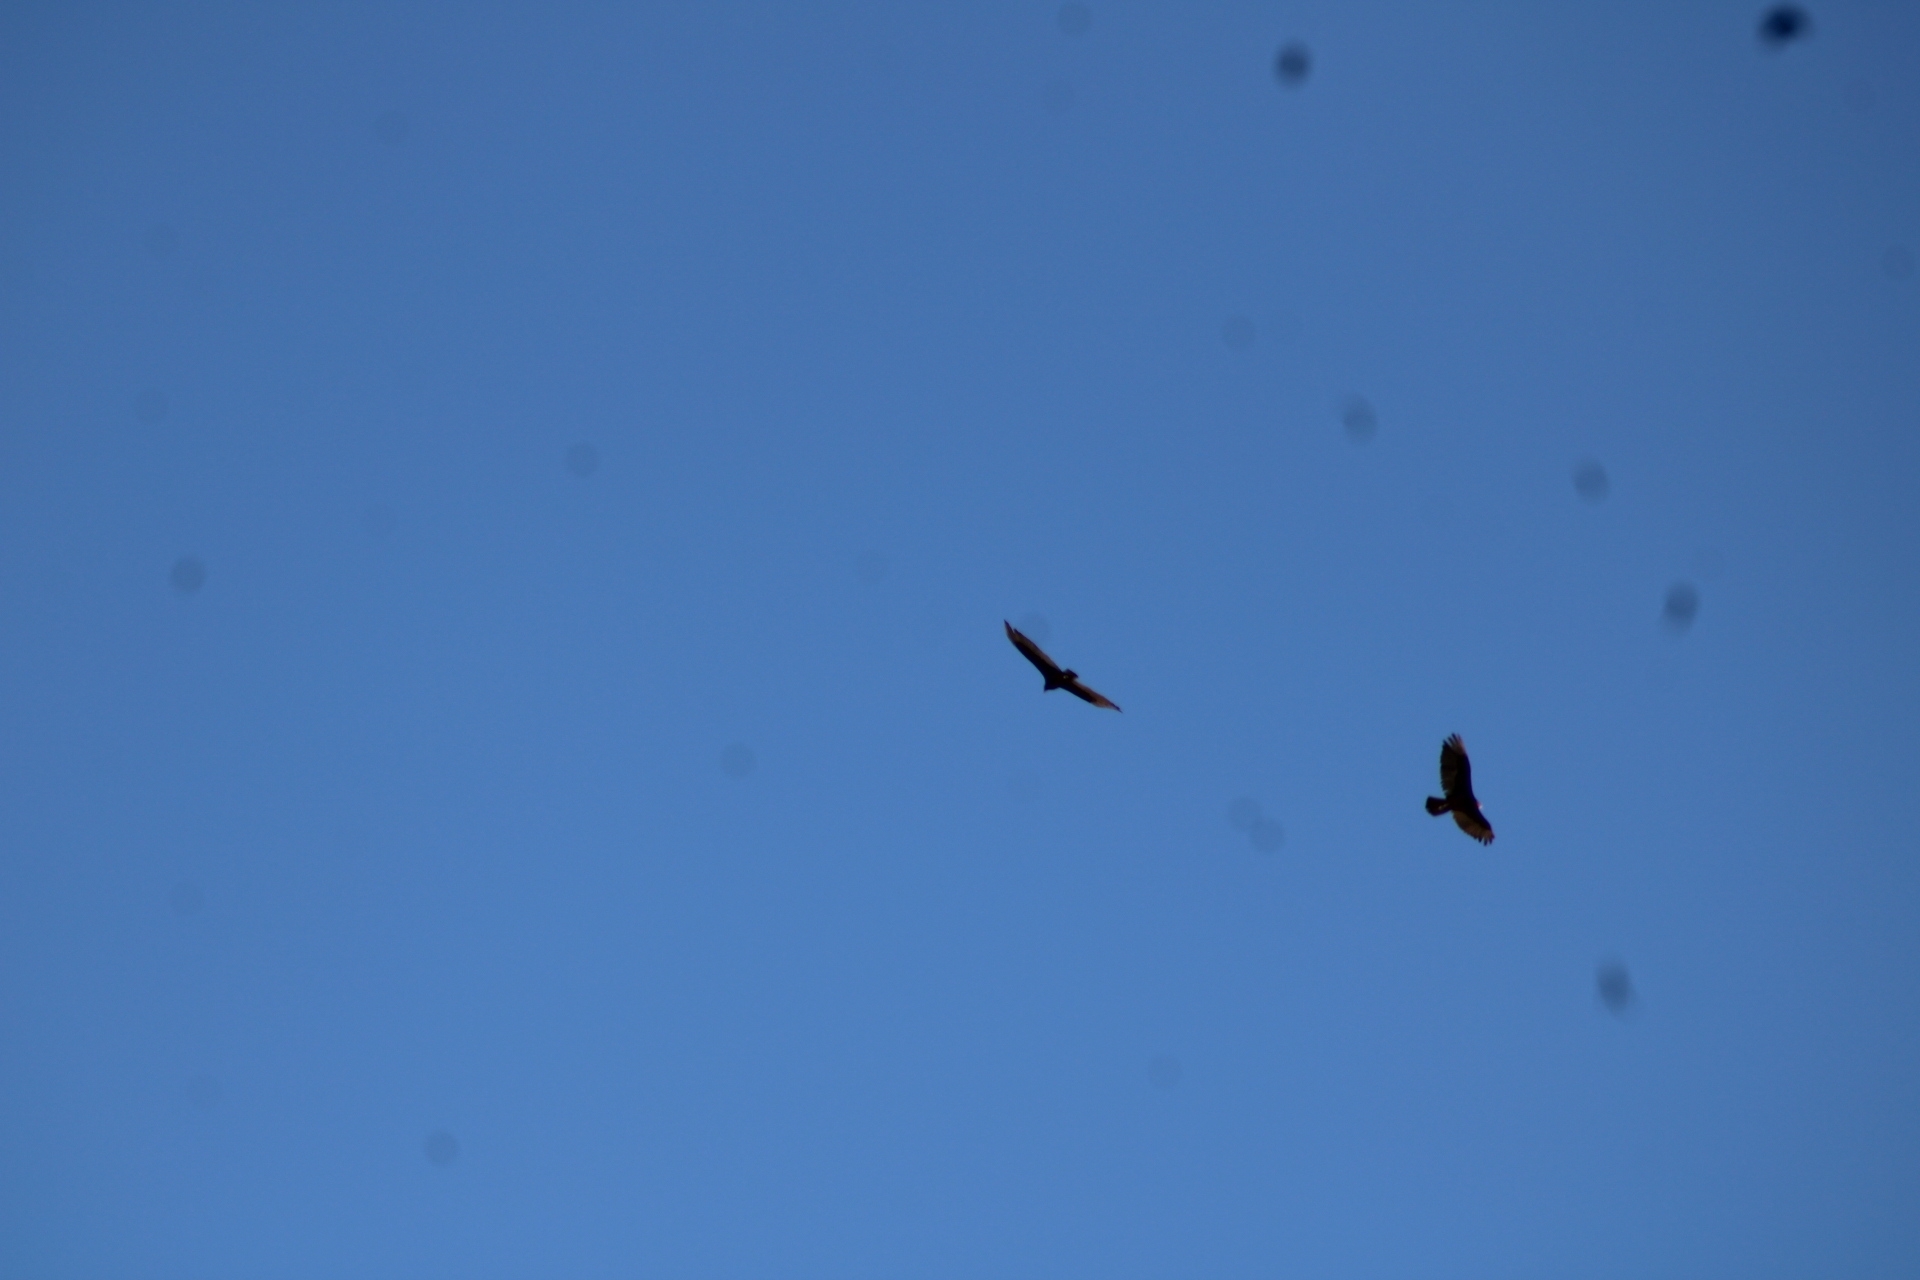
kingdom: Animalia
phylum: Chordata
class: Aves
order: Accipitriformes
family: Cathartidae
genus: Cathartes
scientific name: Cathartes aura
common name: Turkey vulture
